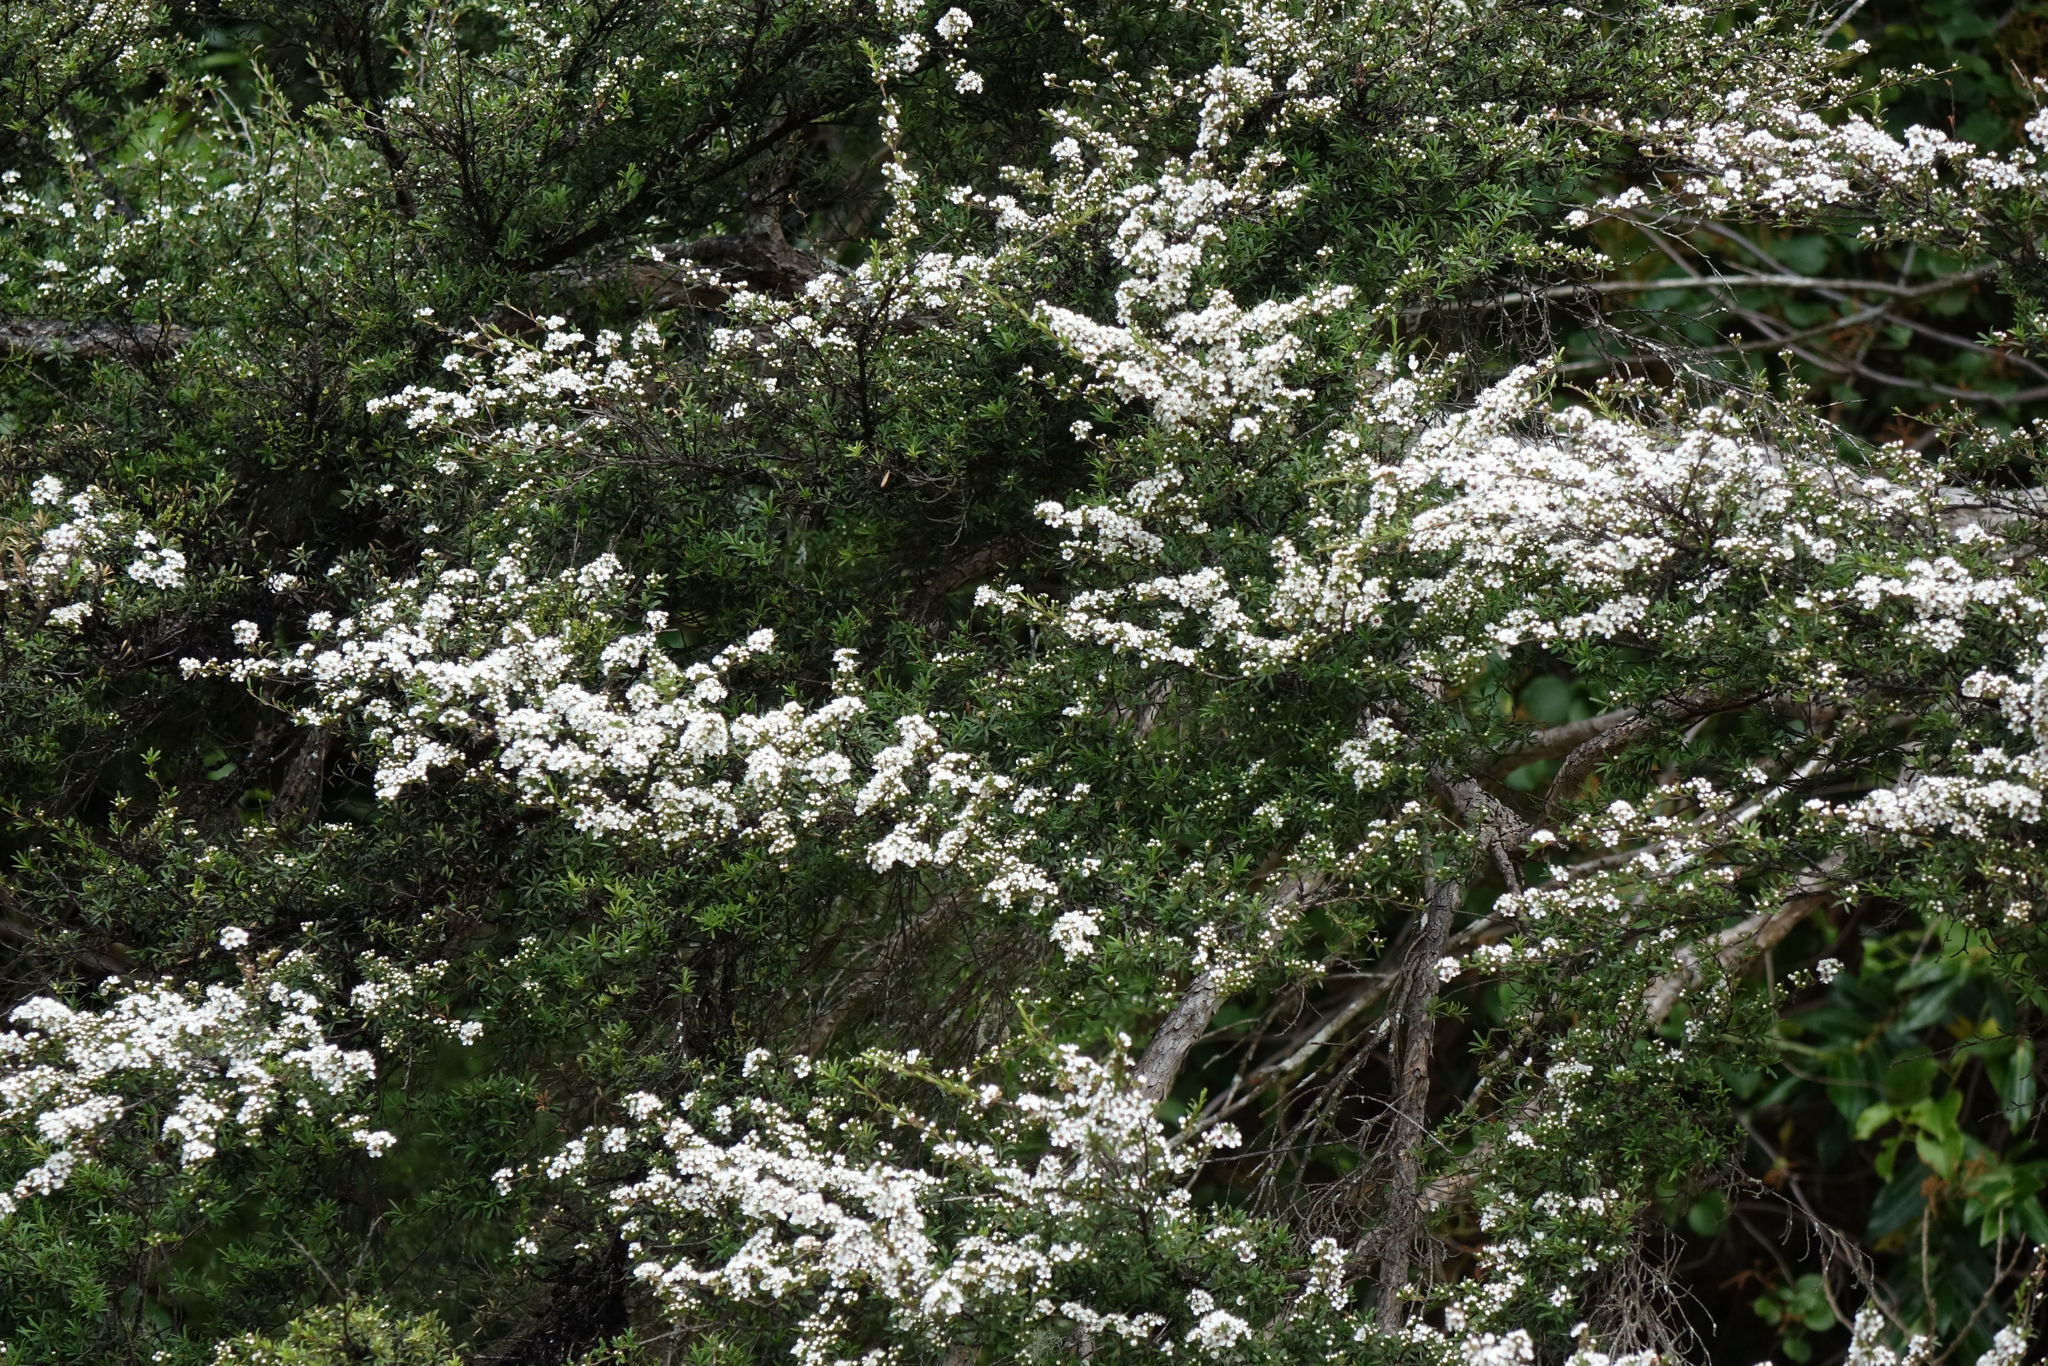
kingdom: Plantae
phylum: Tracheophyta
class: Magnoliopsida
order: Myrtales
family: Myrtaceae
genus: Kunzea
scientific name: Kunzea robusta
